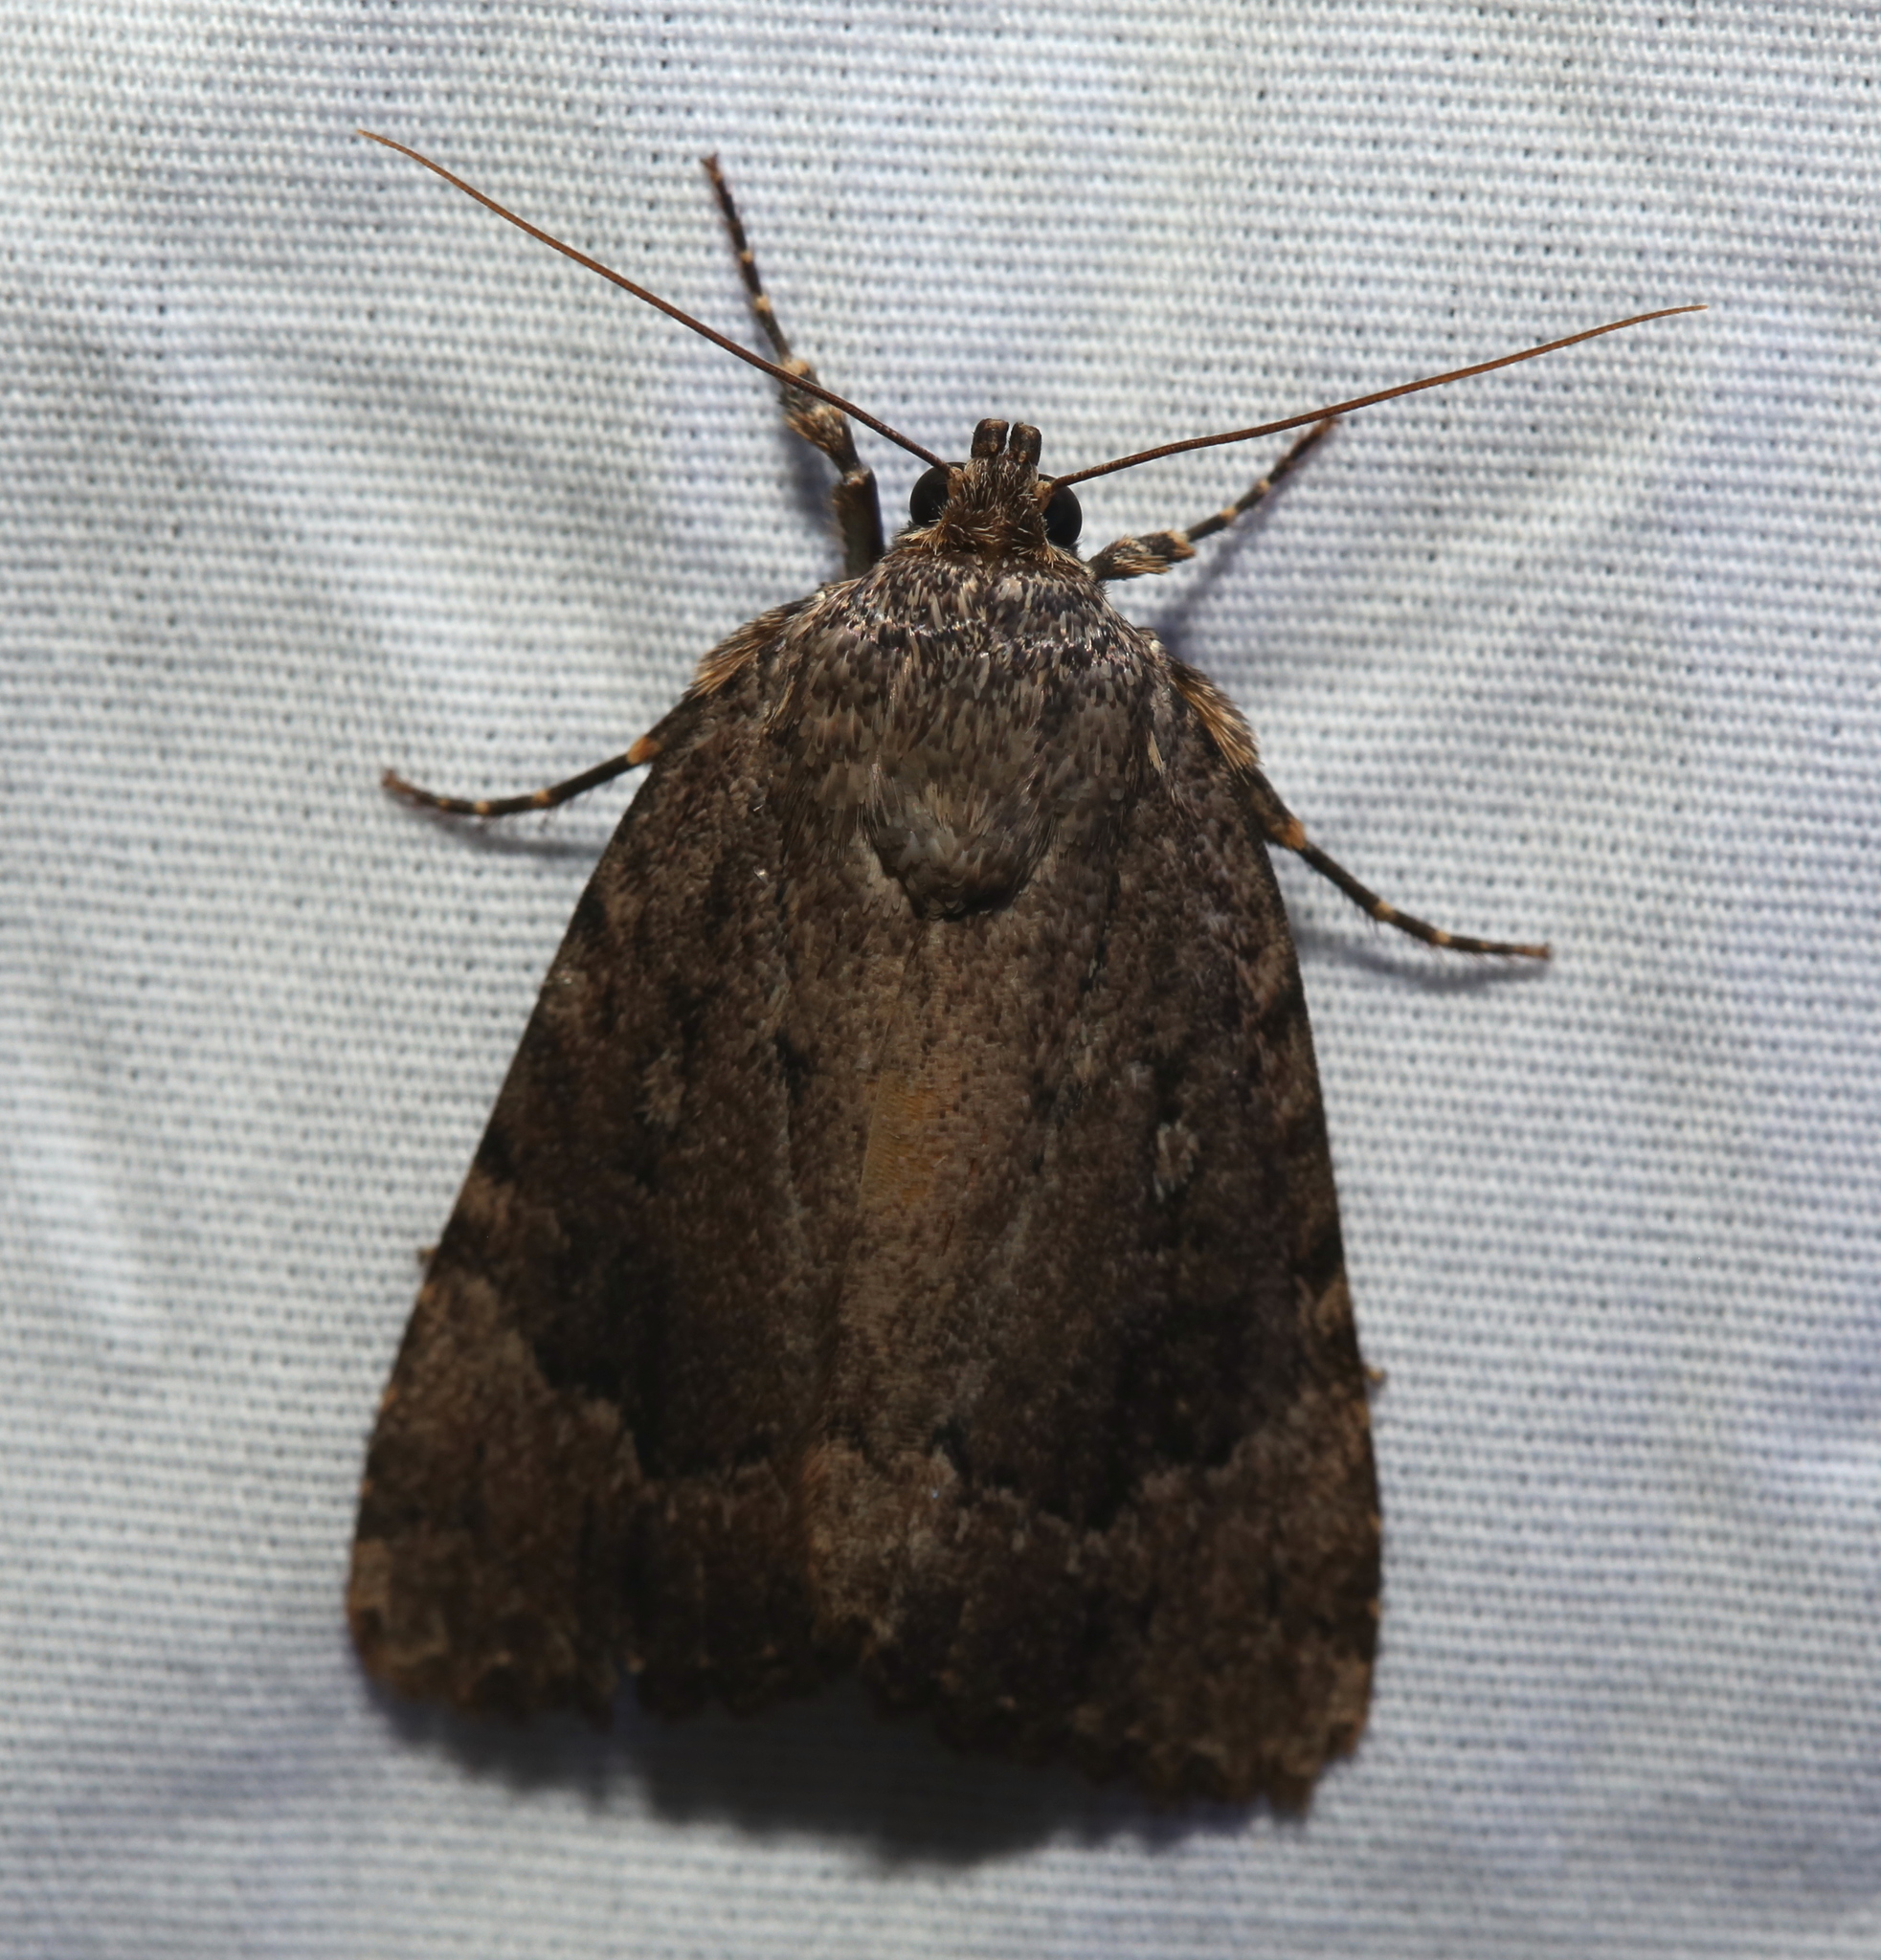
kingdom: Animalia
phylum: Arthropoda
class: Insecta
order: Lepidoptera
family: Noctuidae
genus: Amphipyra
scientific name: Amphipyra pyramidoides
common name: American copper underwing
